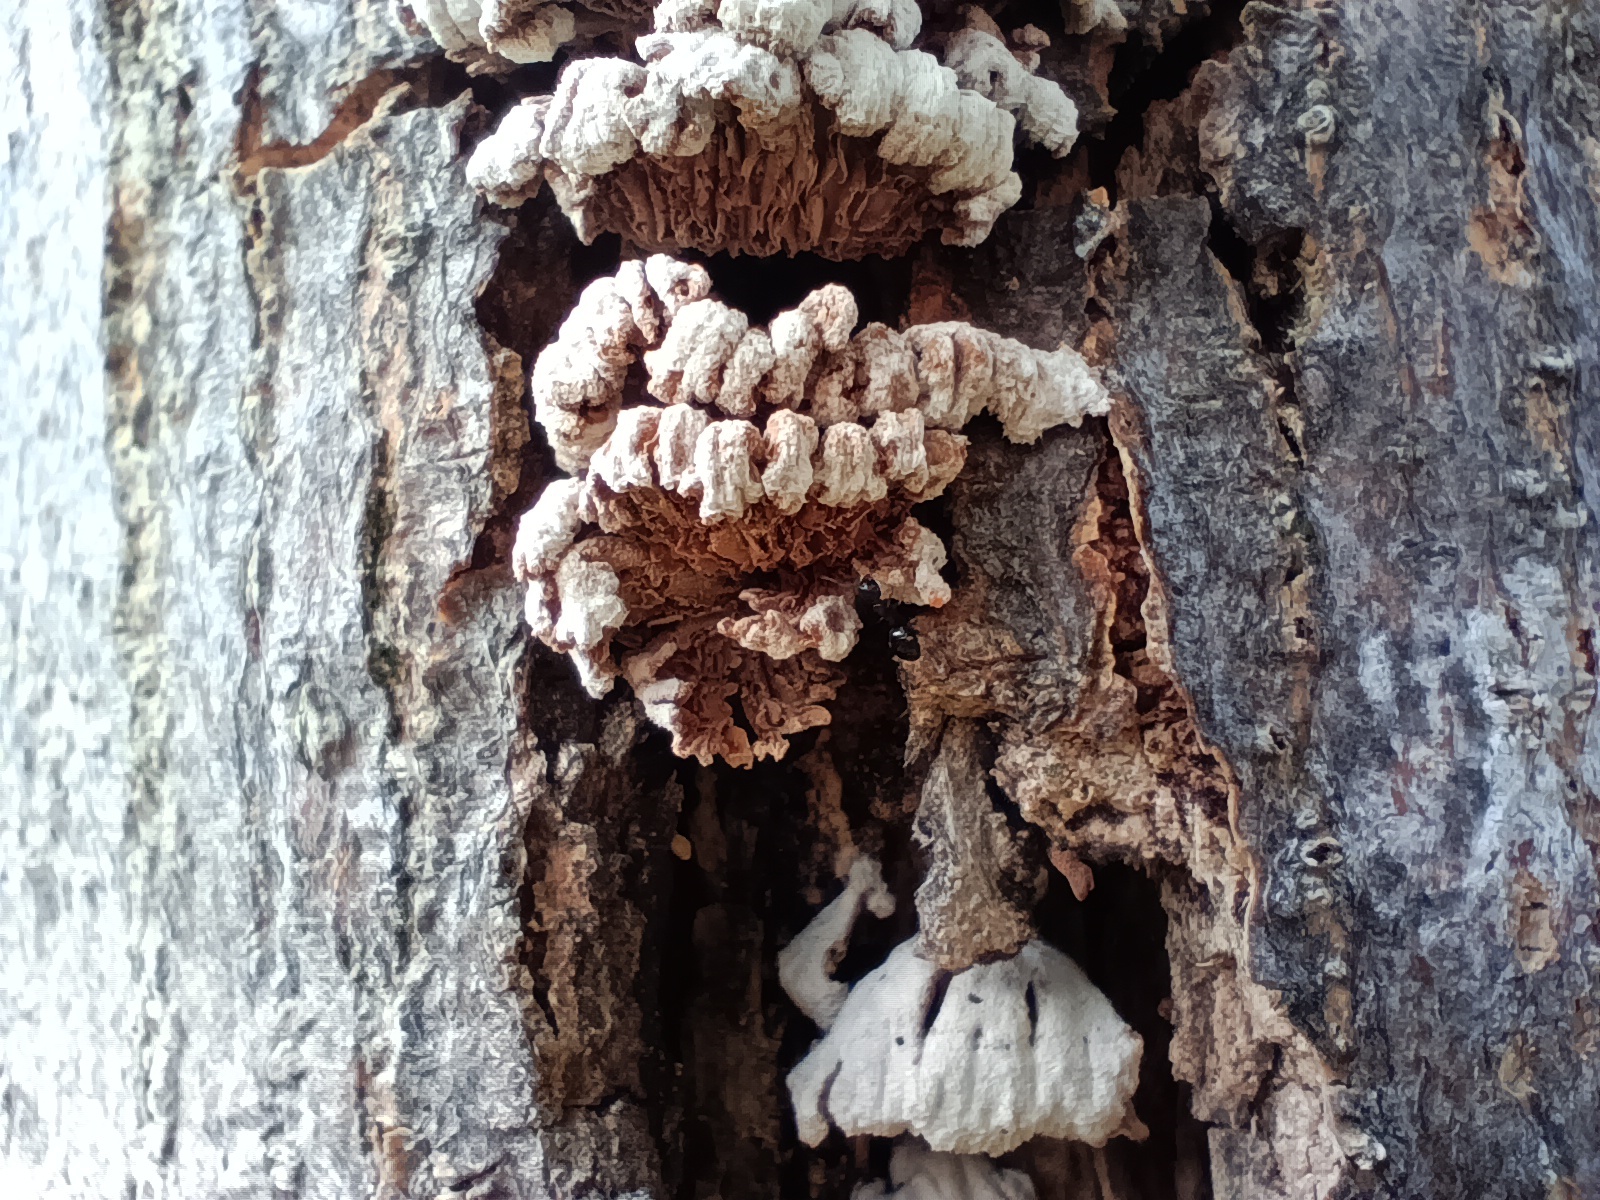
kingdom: Fungi
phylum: Basidiomycota
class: Agaricomycetes
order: Agaricales
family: Schizophyllaceae
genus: Schizophyllum
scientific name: Schizophyllum commune
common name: Common porecrust
